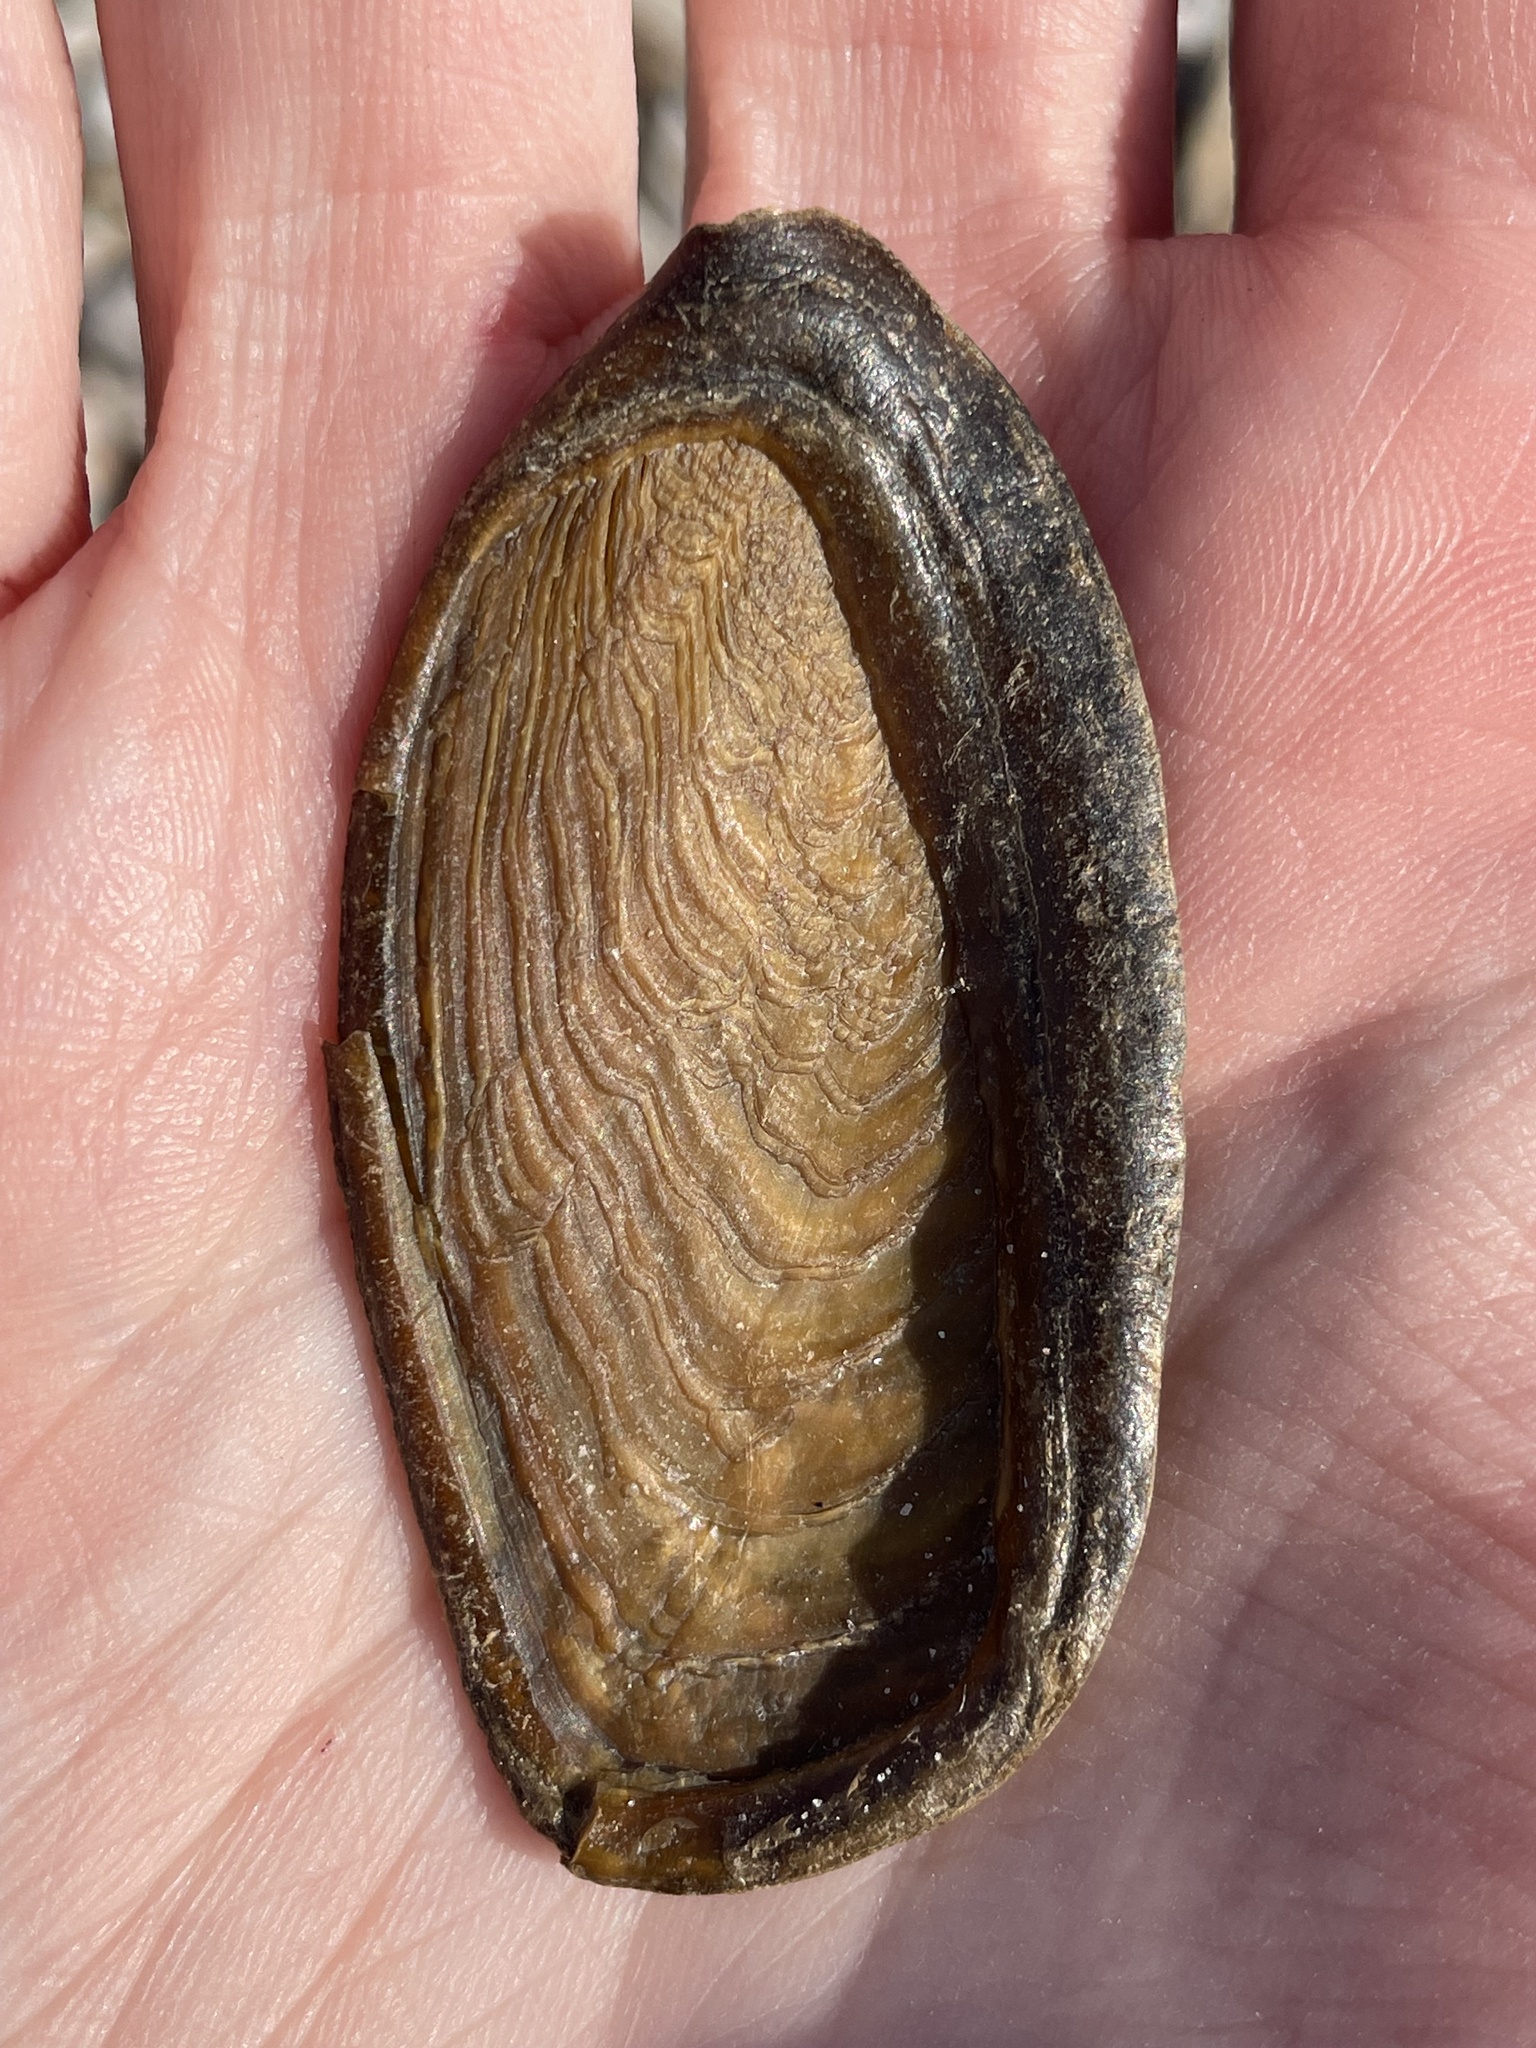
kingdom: Animalia
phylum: Mollusca
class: Gastropoda
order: Neogastropoda
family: Busyconidae
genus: Busycotypus
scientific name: Busycotypus canaliculatus
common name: Channeled whelk
